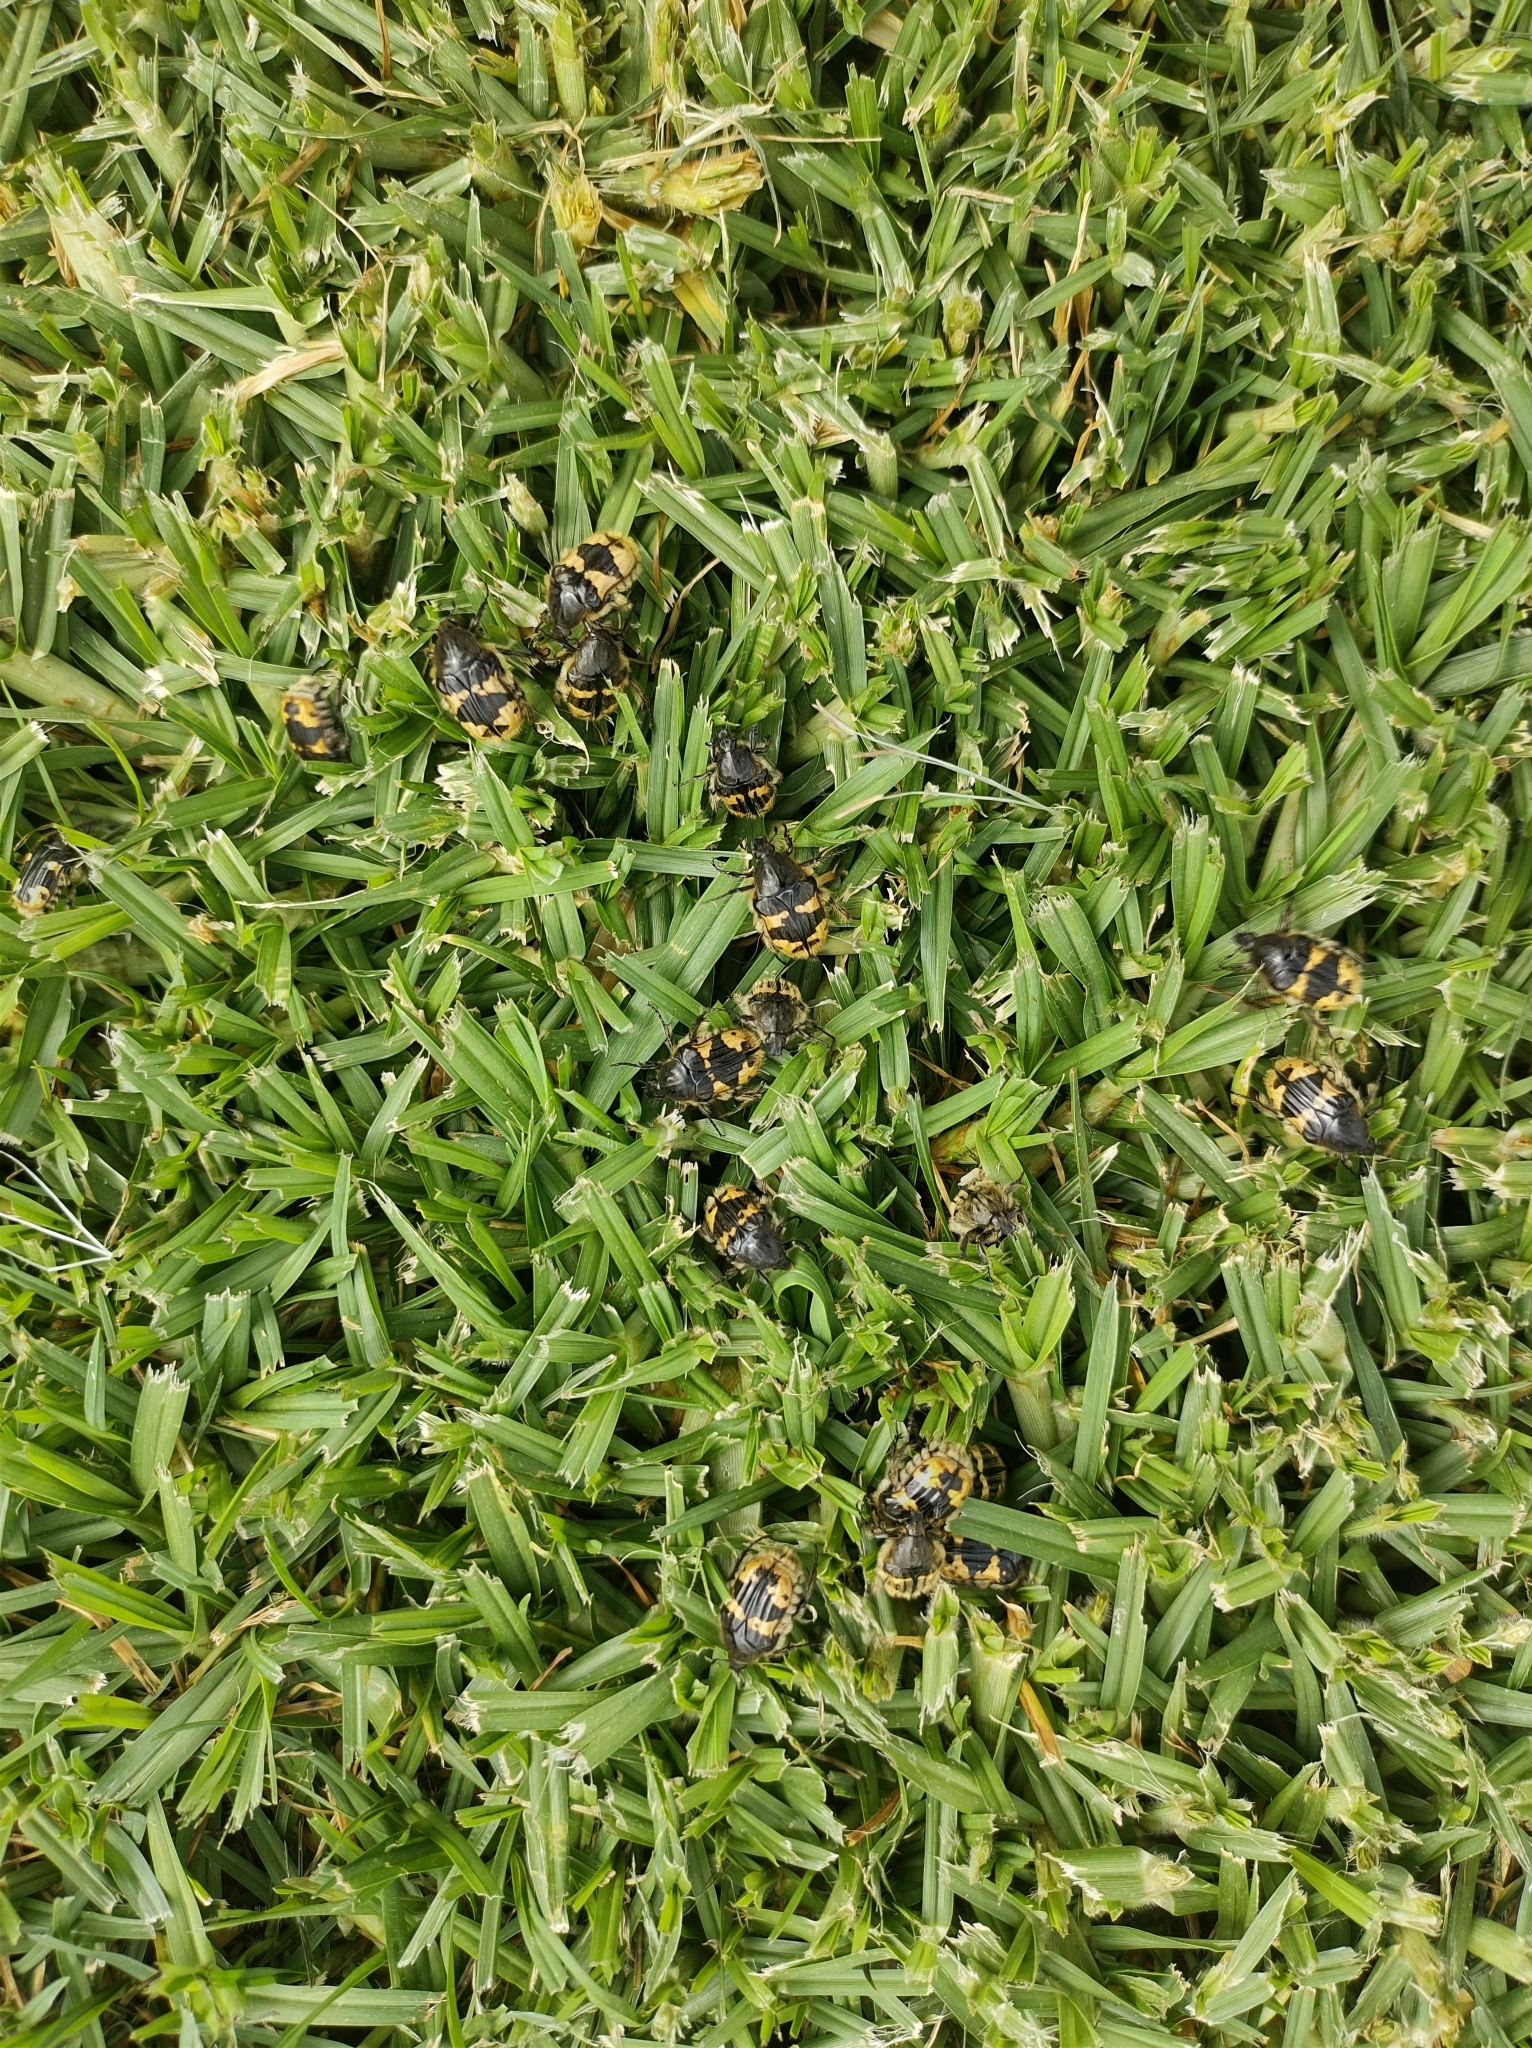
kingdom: Animalia
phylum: Arthropoda
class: Insecta
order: Coleoptera
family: Scarabaeidae
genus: Euphoria
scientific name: Euphoria basalis
